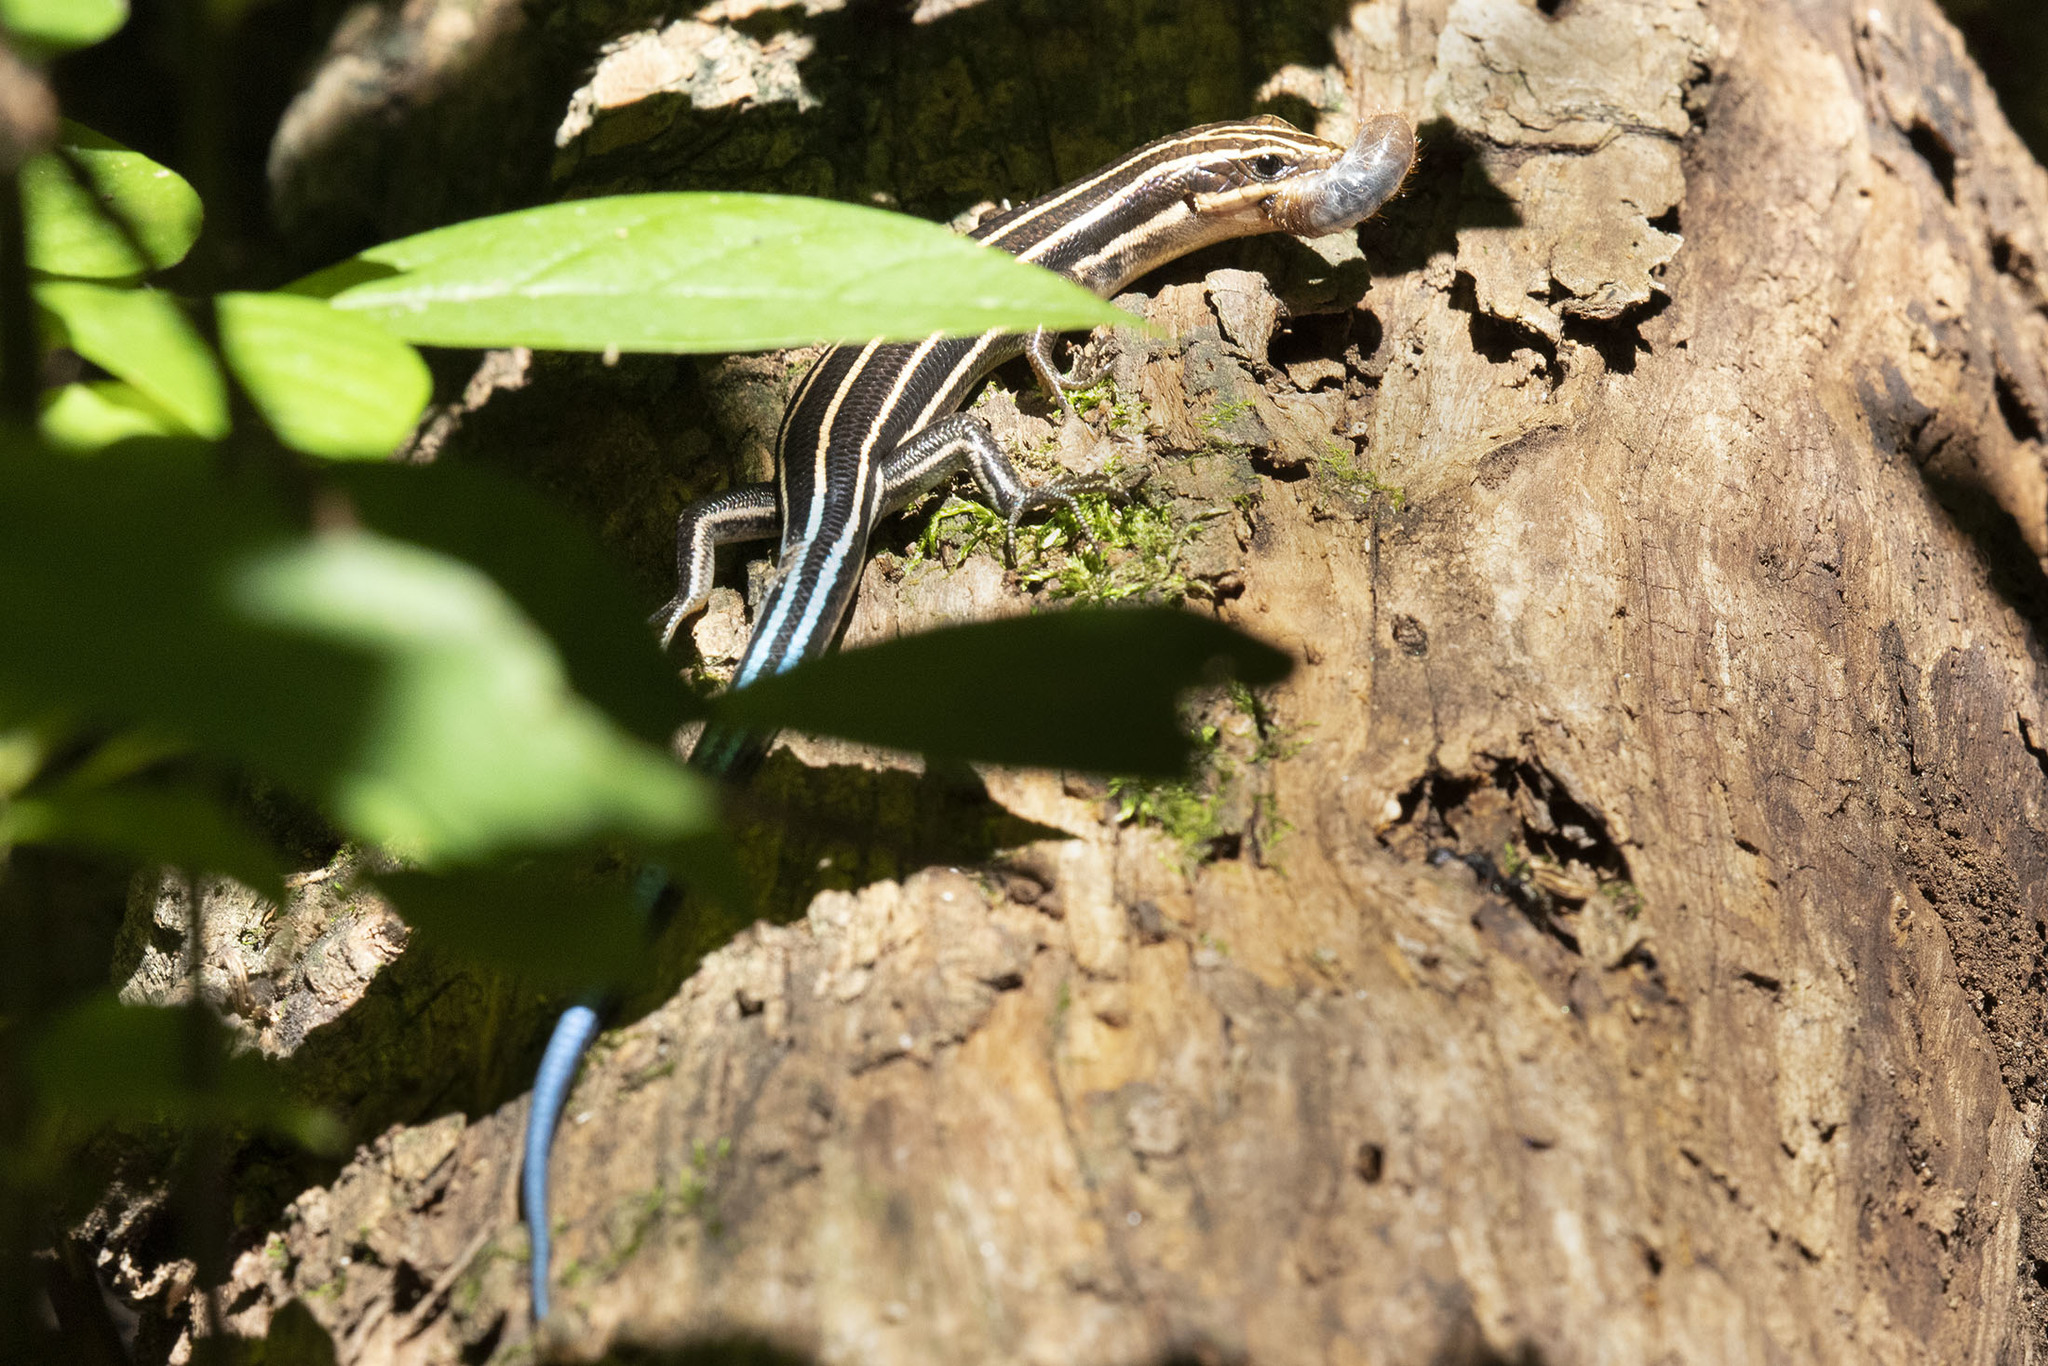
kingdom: Animalia
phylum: Chordata
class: Squamata
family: Scincidae
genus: Plestiodon
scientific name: Plestiodon fasciatus
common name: Five-lined skink
